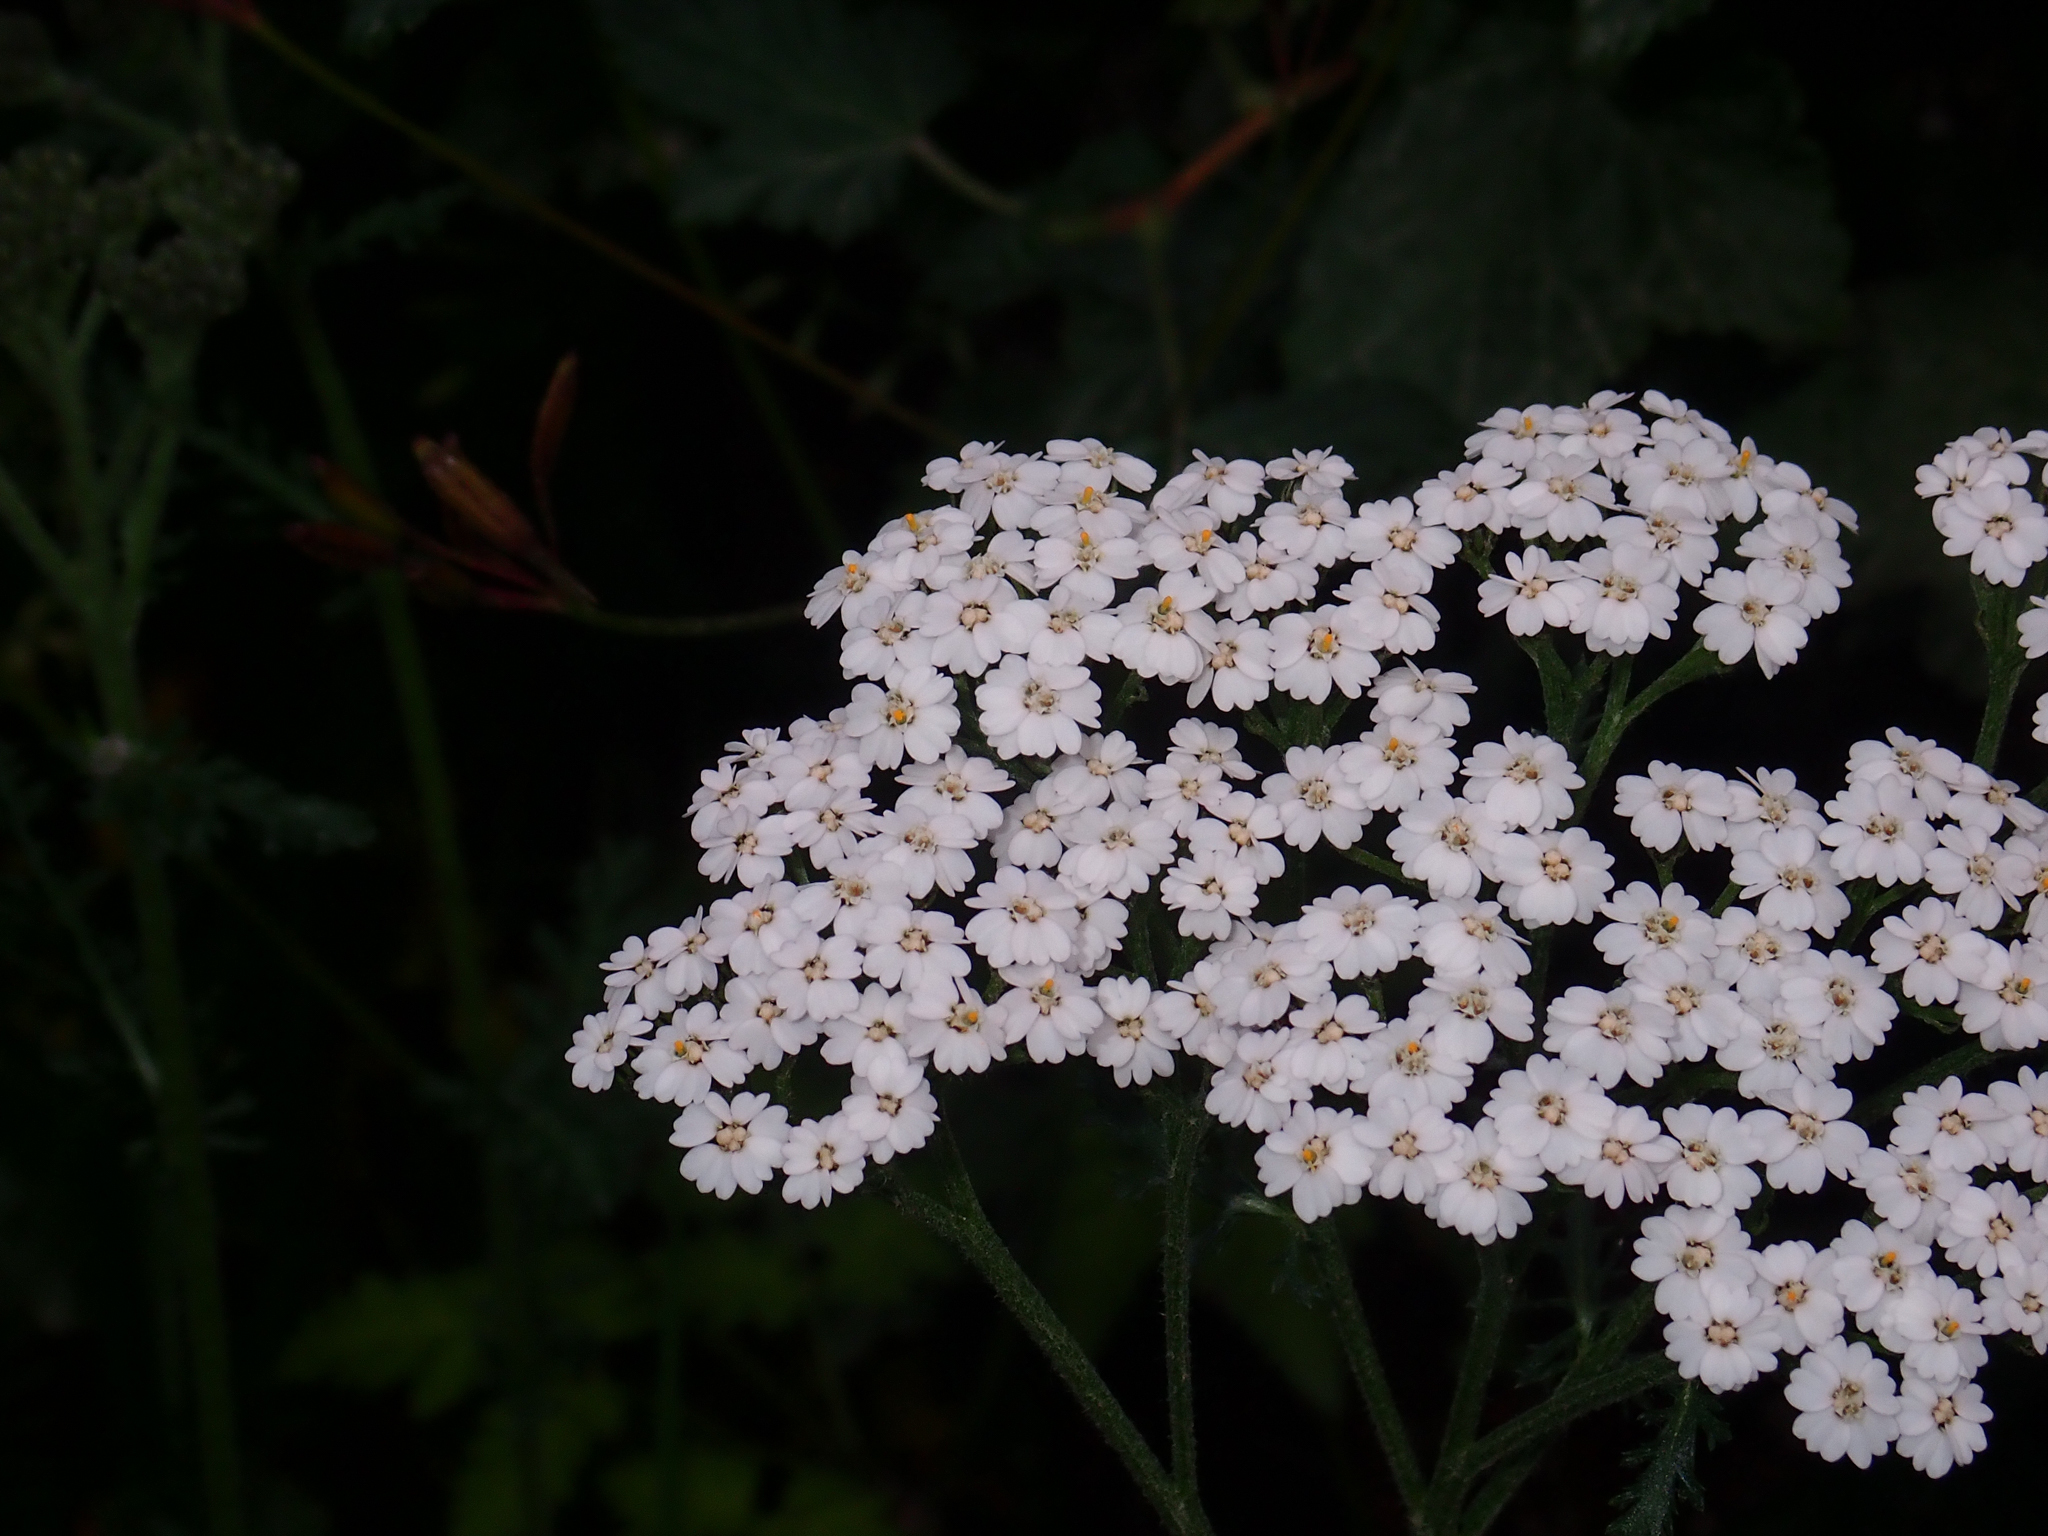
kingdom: Plantae
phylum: Tracheophyta
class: Magnoliopsida
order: Asterales
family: Asteraceae
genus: Achillea
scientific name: Achillea millefolium
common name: Yarrow
